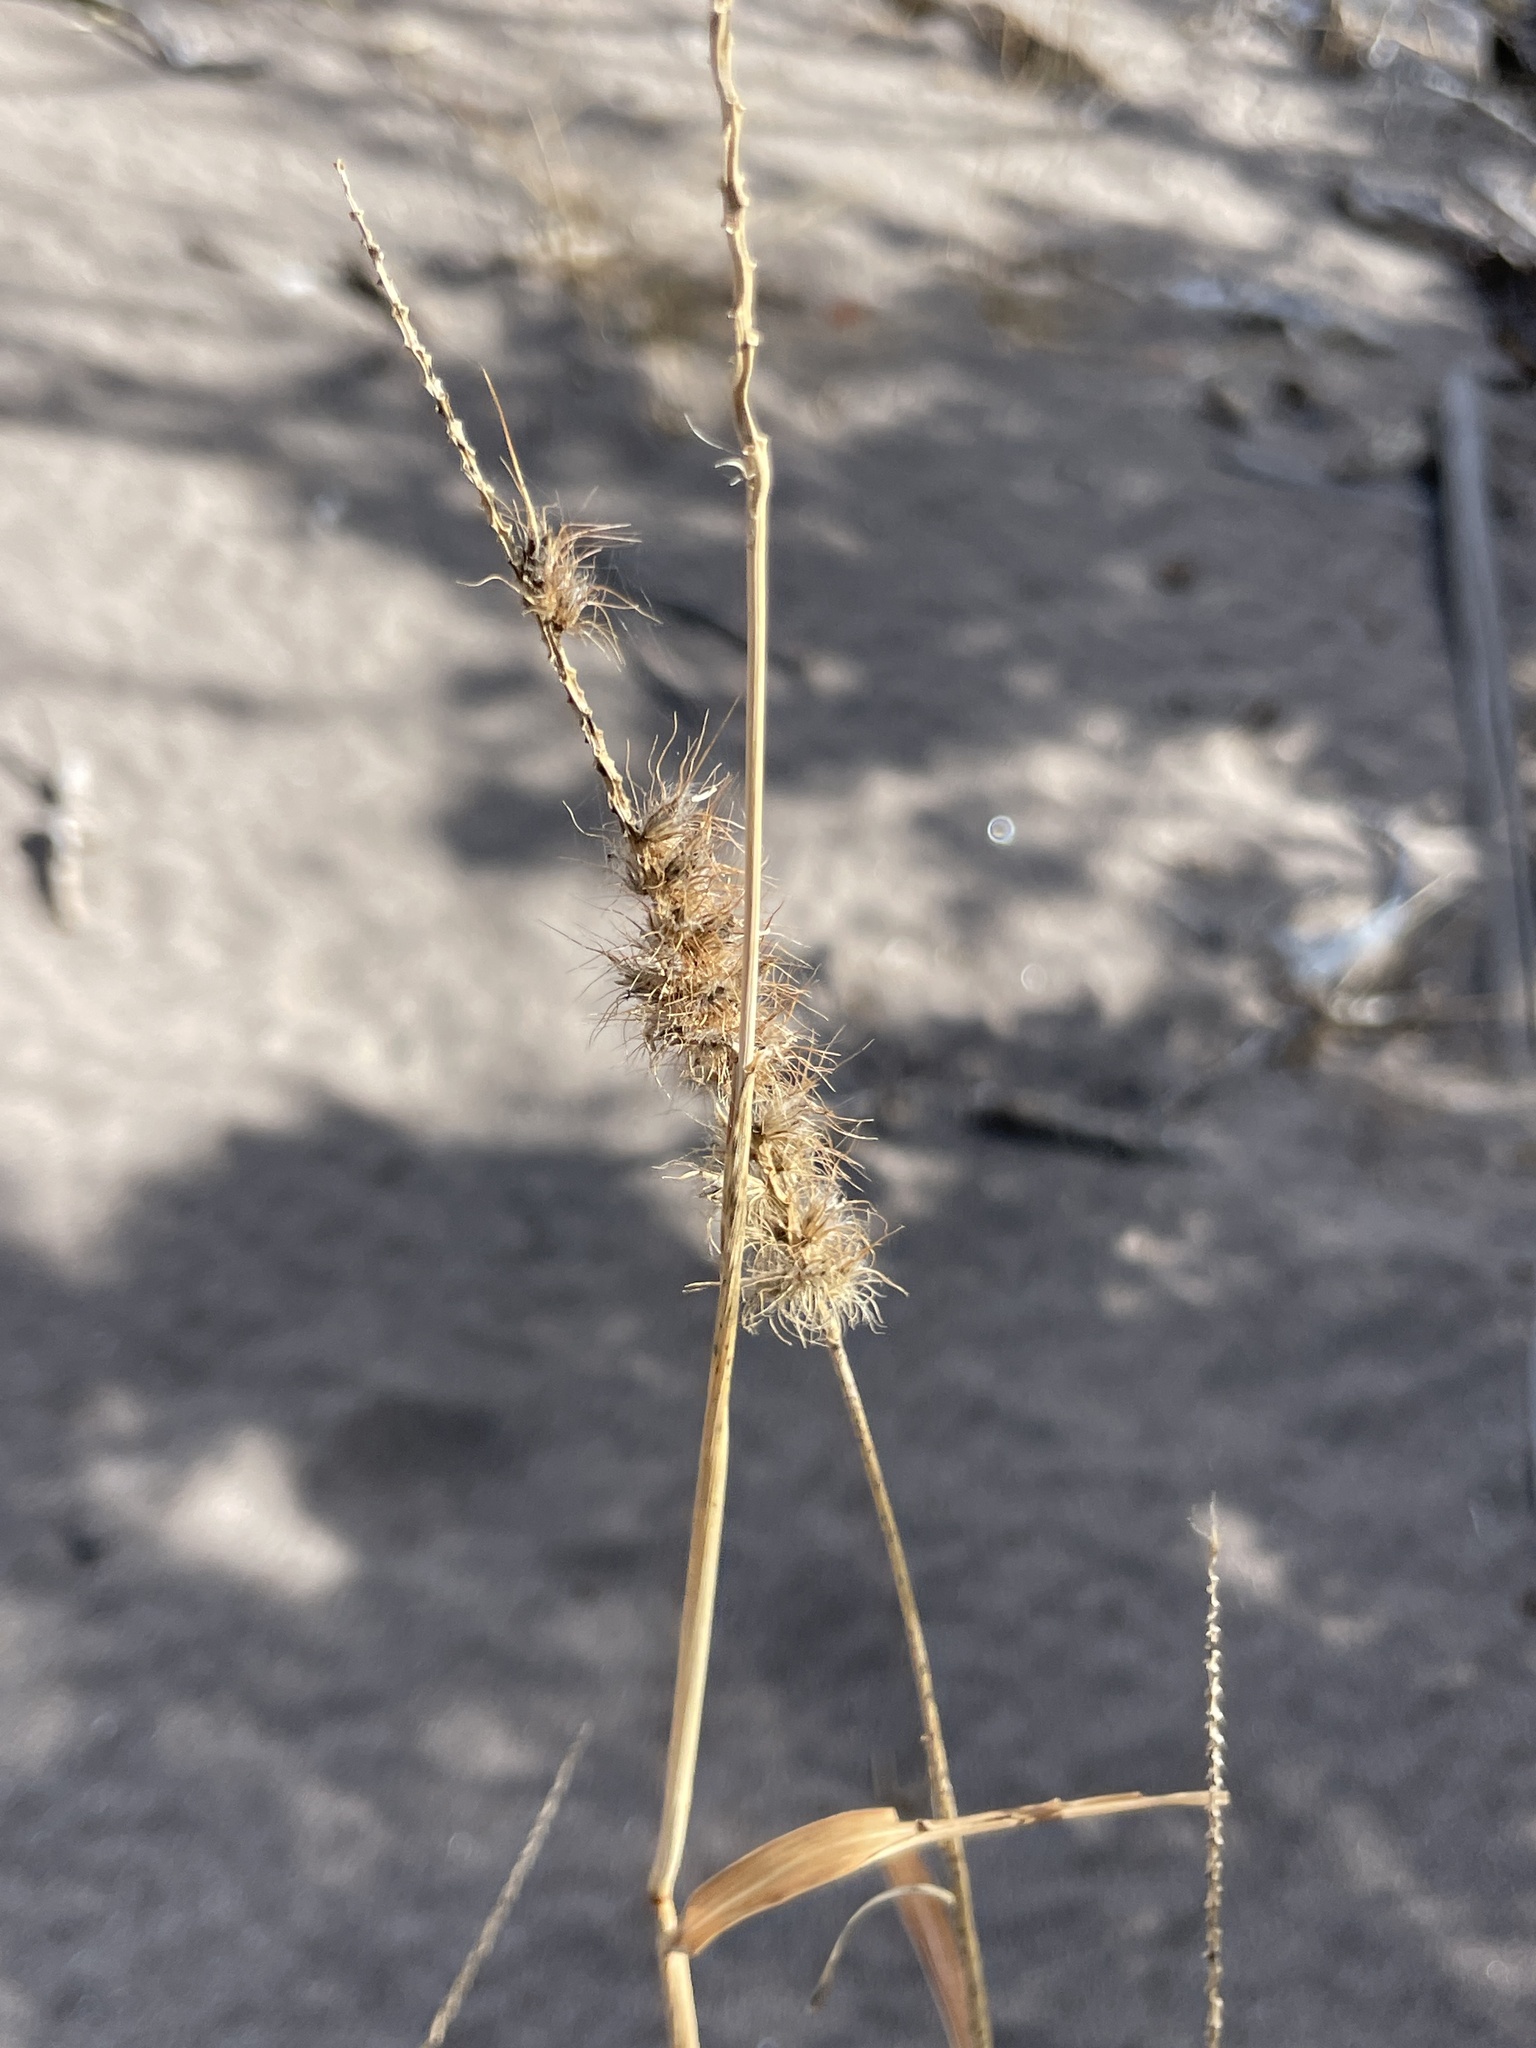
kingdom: Plantae
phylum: Tracheophyta
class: Liliopsida
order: Poales
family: Poaceae
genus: Cenchrus
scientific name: Cenchrus ciliaris
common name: Buffelgrass
